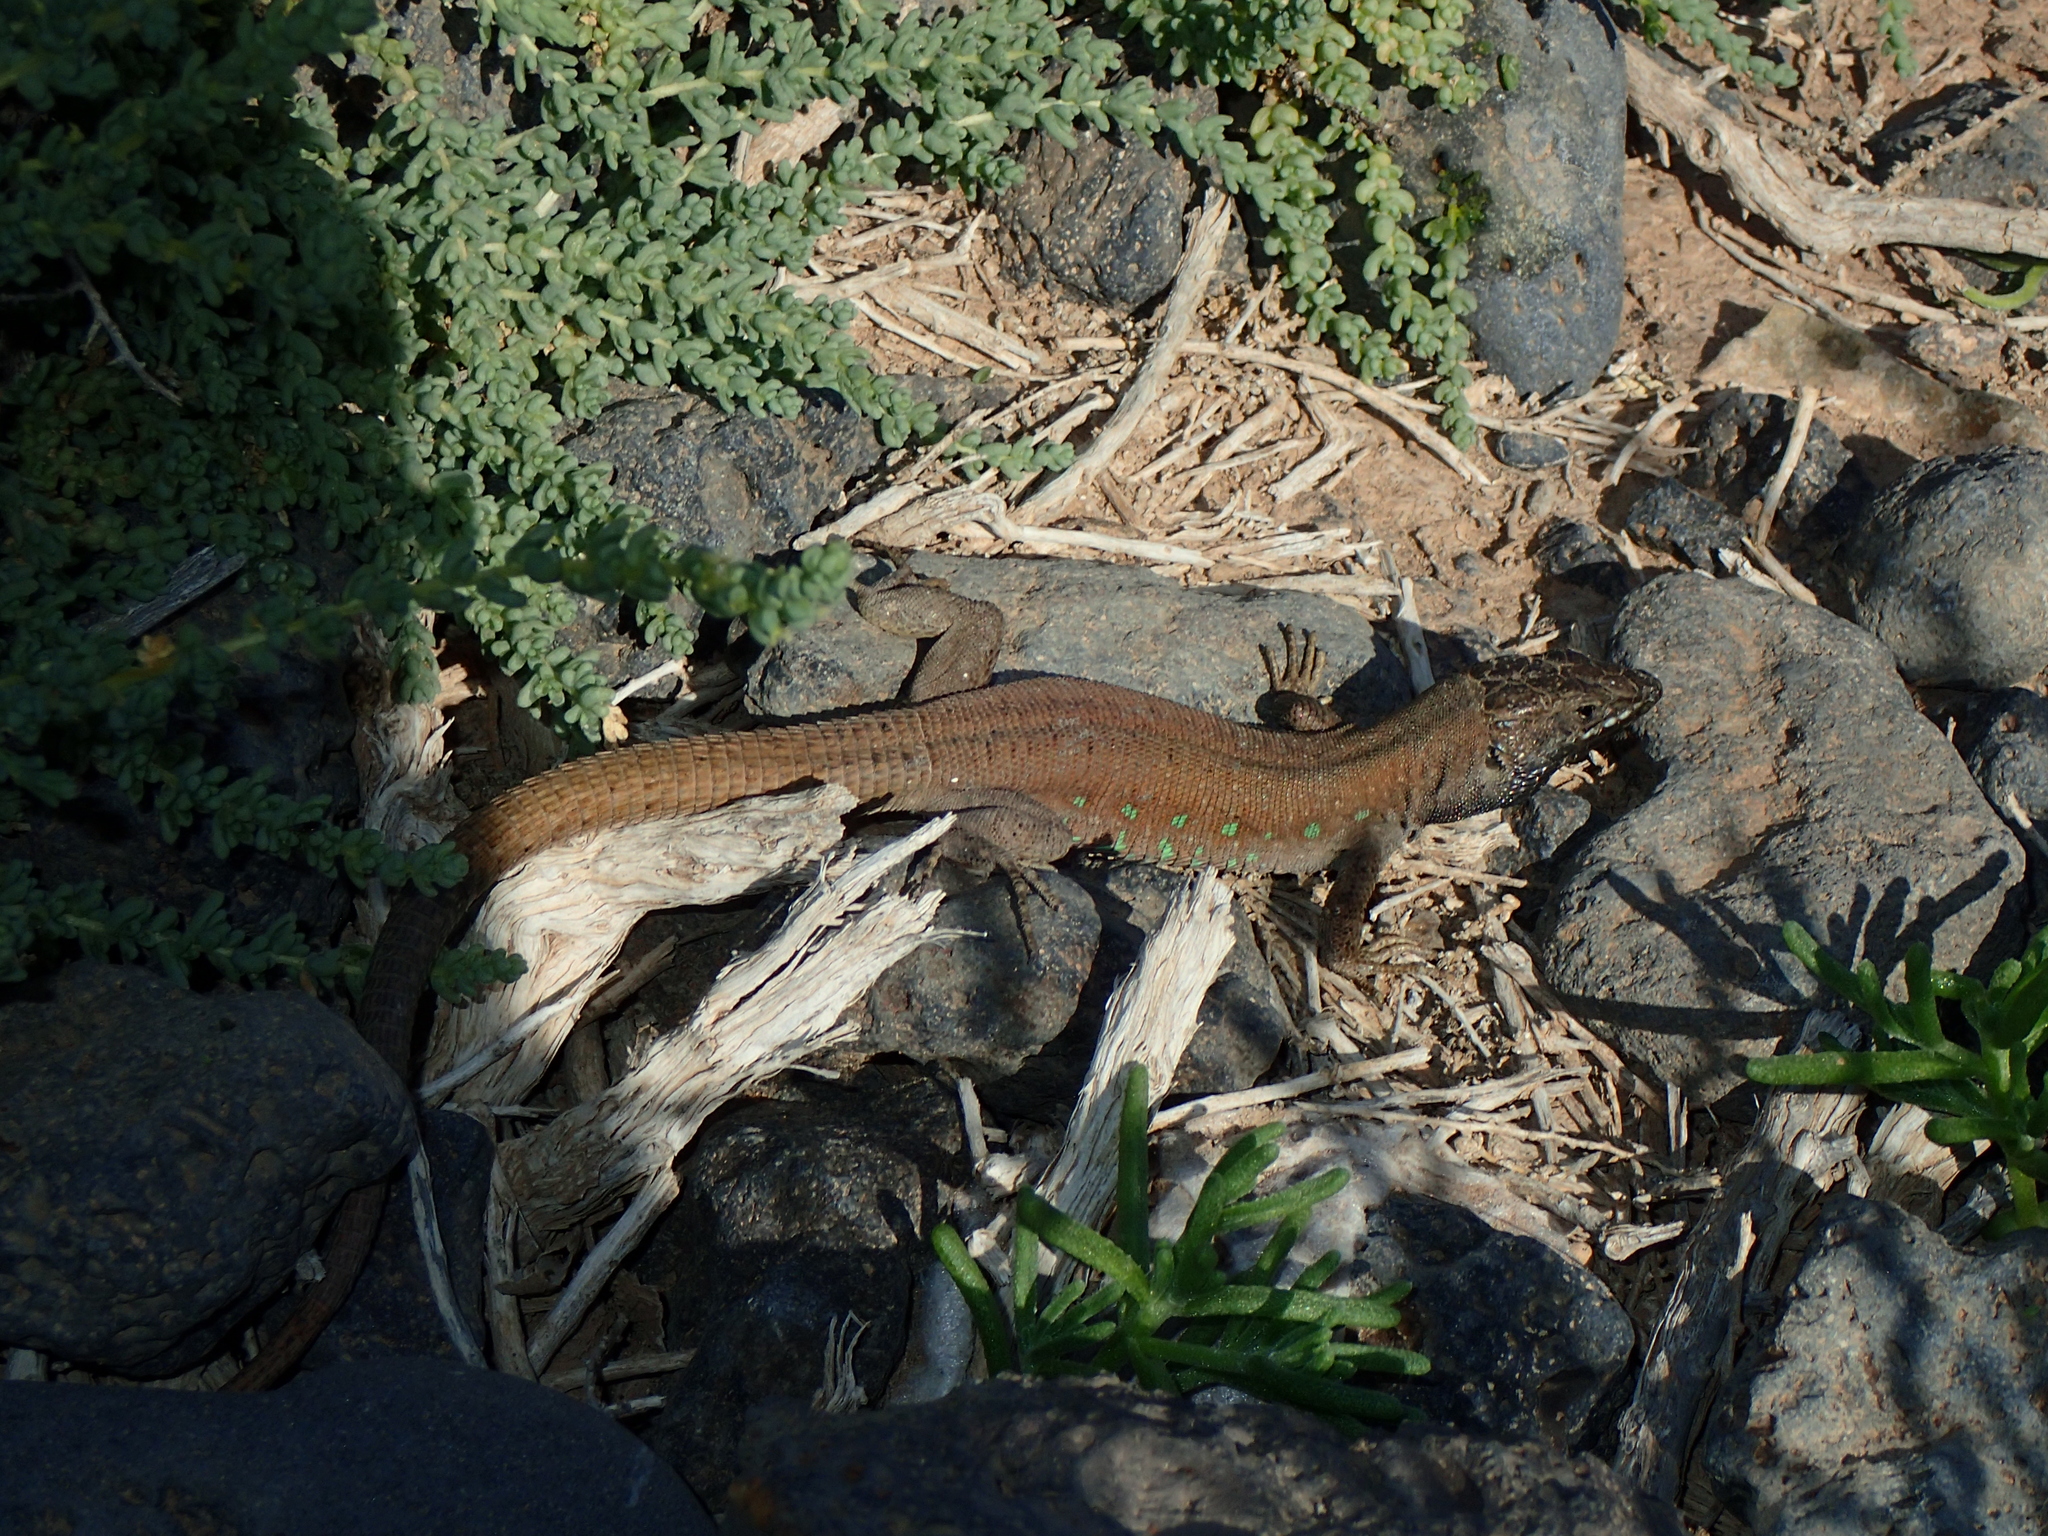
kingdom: Animalia
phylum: Chordata
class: Squamata
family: Lacertidae
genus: Gallotia
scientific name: Gallotia atlantica
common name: Atlantic lizard
